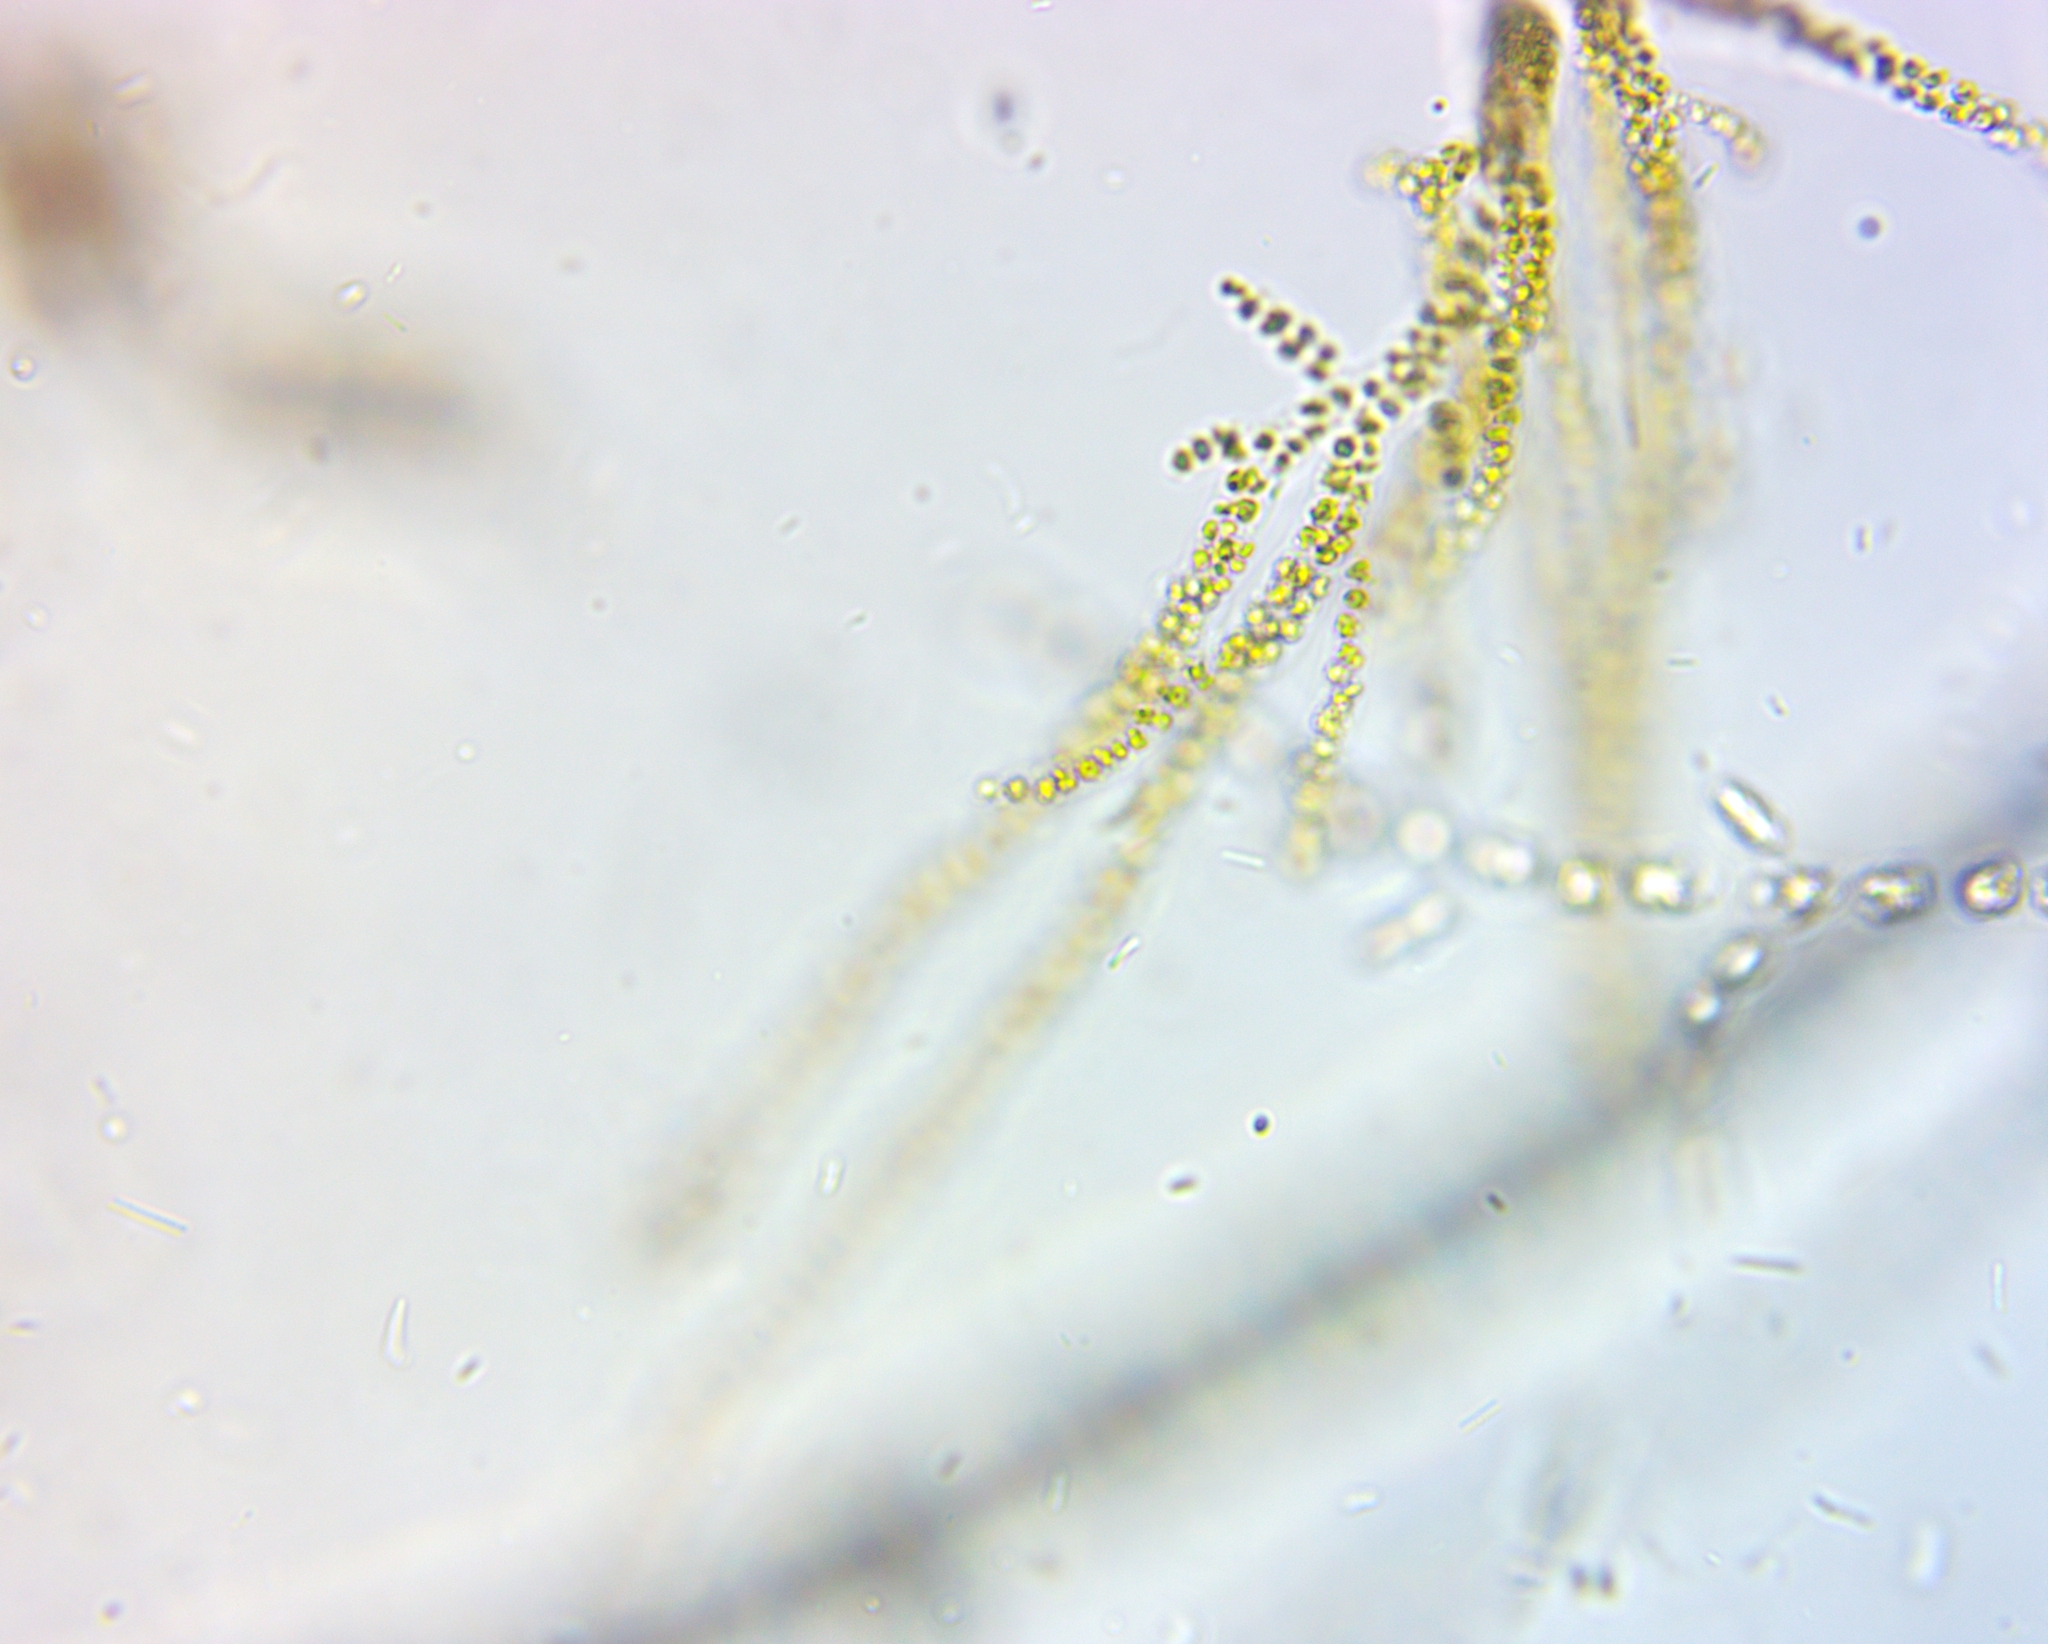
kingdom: Chromista
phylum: Ochrophyta
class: Chrysophyceae
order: Hydrurales
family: Hydruraceae
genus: Hydrurus
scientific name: Hydrurus foetidus
